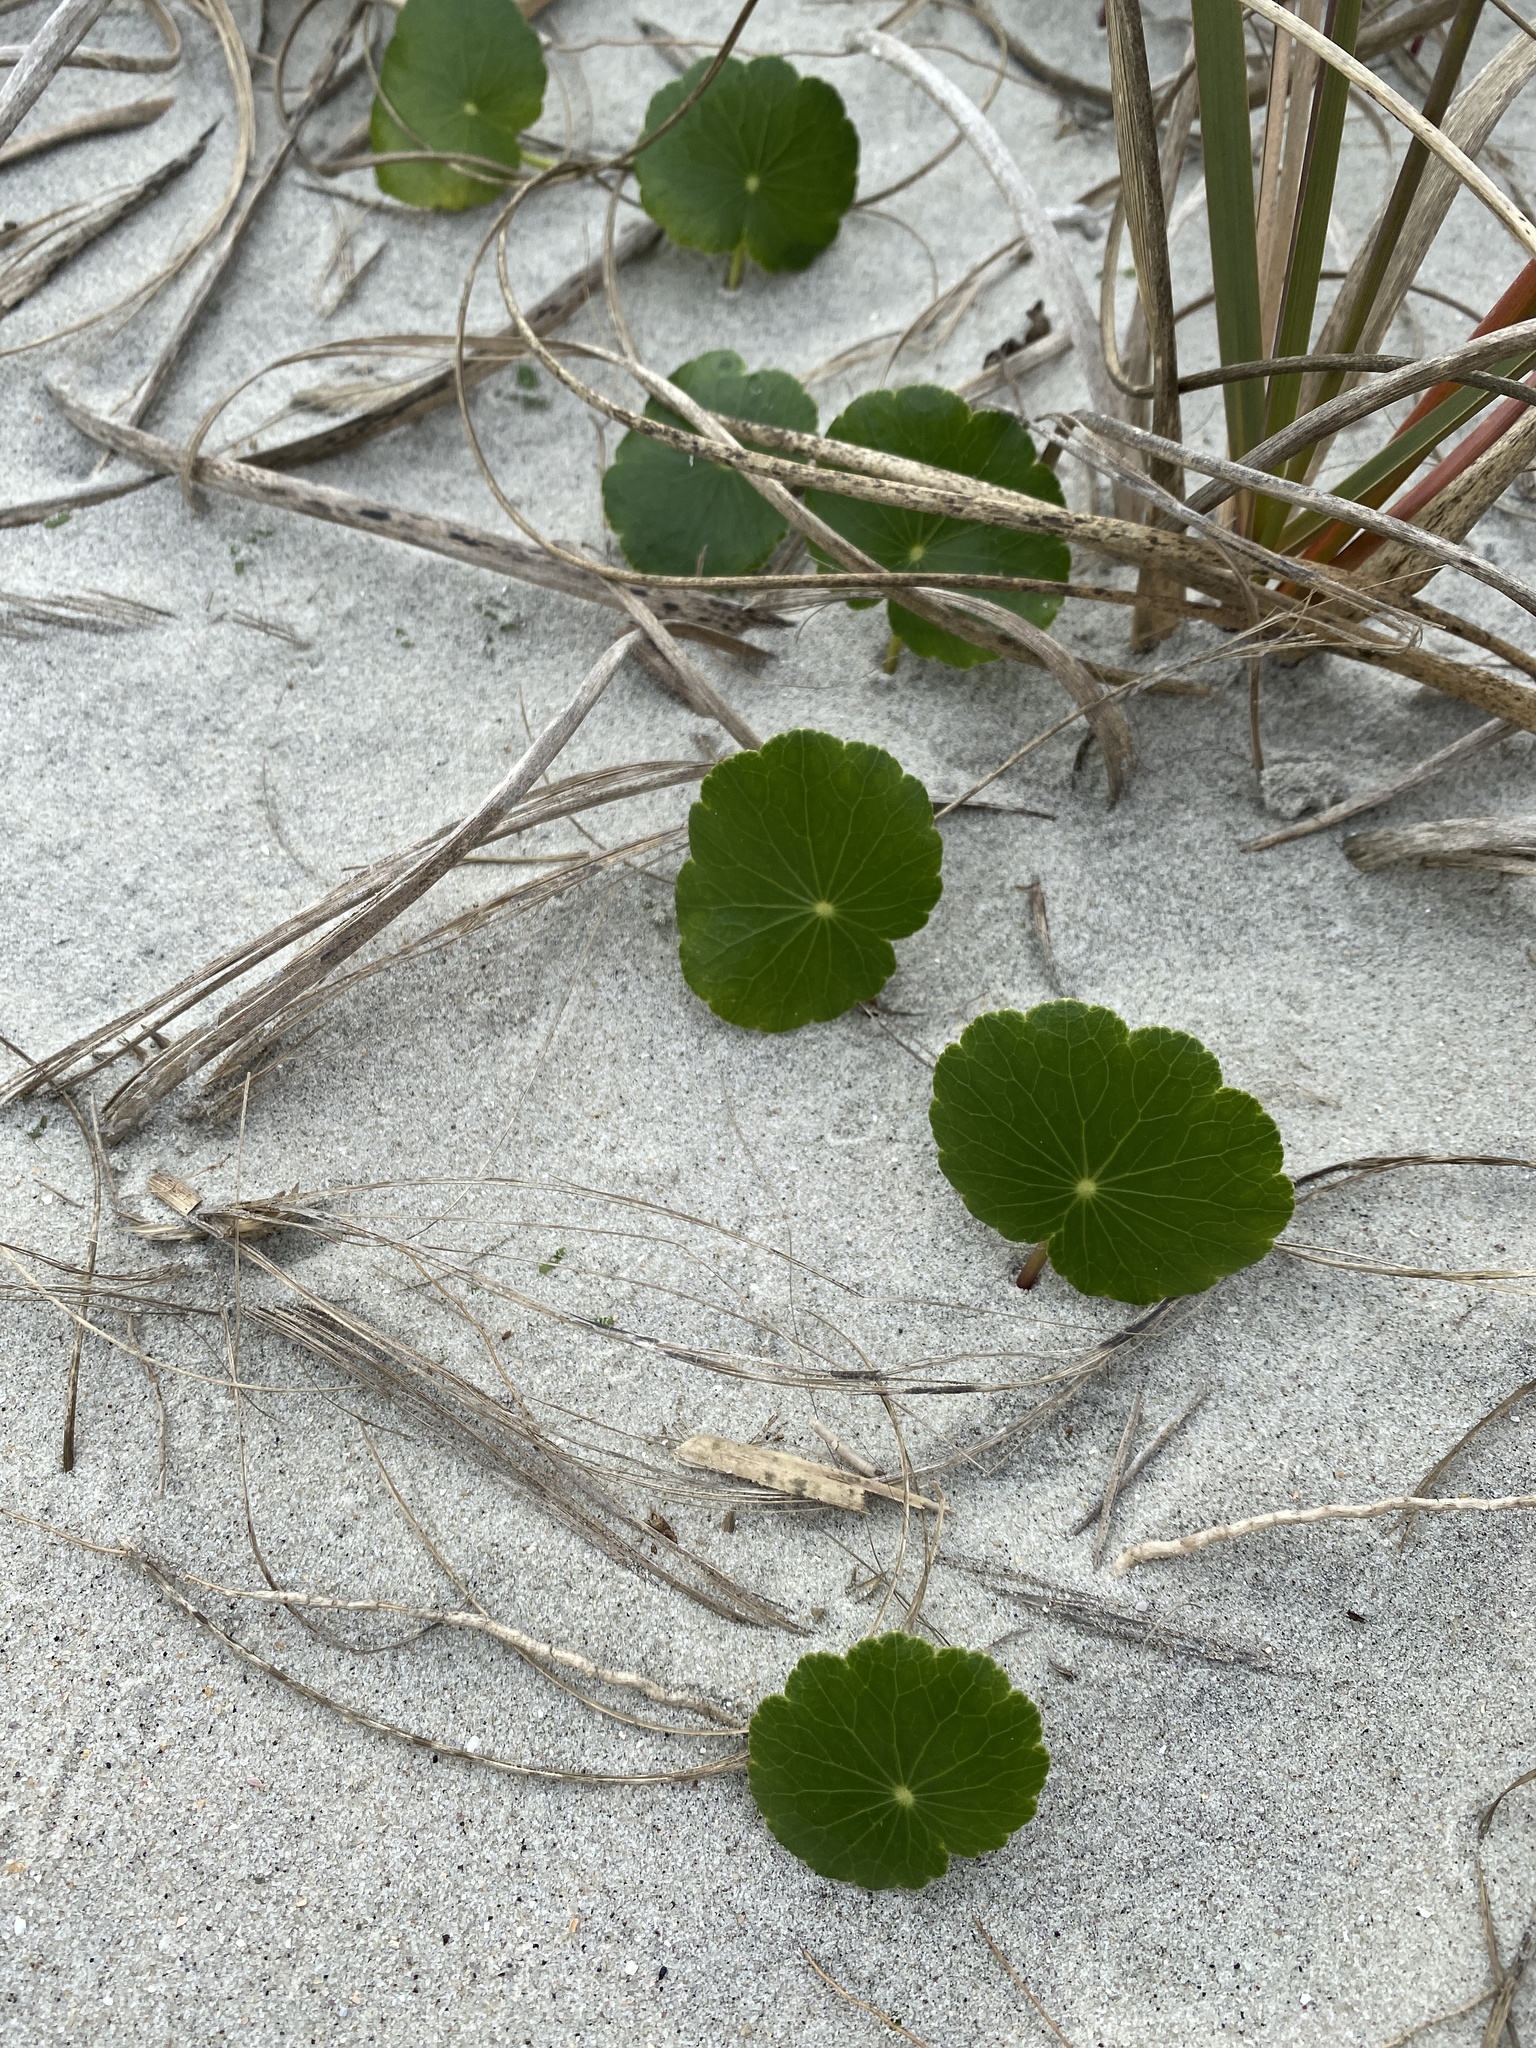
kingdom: Plantae
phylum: Tracheophyta
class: Magnoliopsida
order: Apiales
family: Araliaceae
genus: Hydrocotyle
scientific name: Hydrocotyle bonariensis
